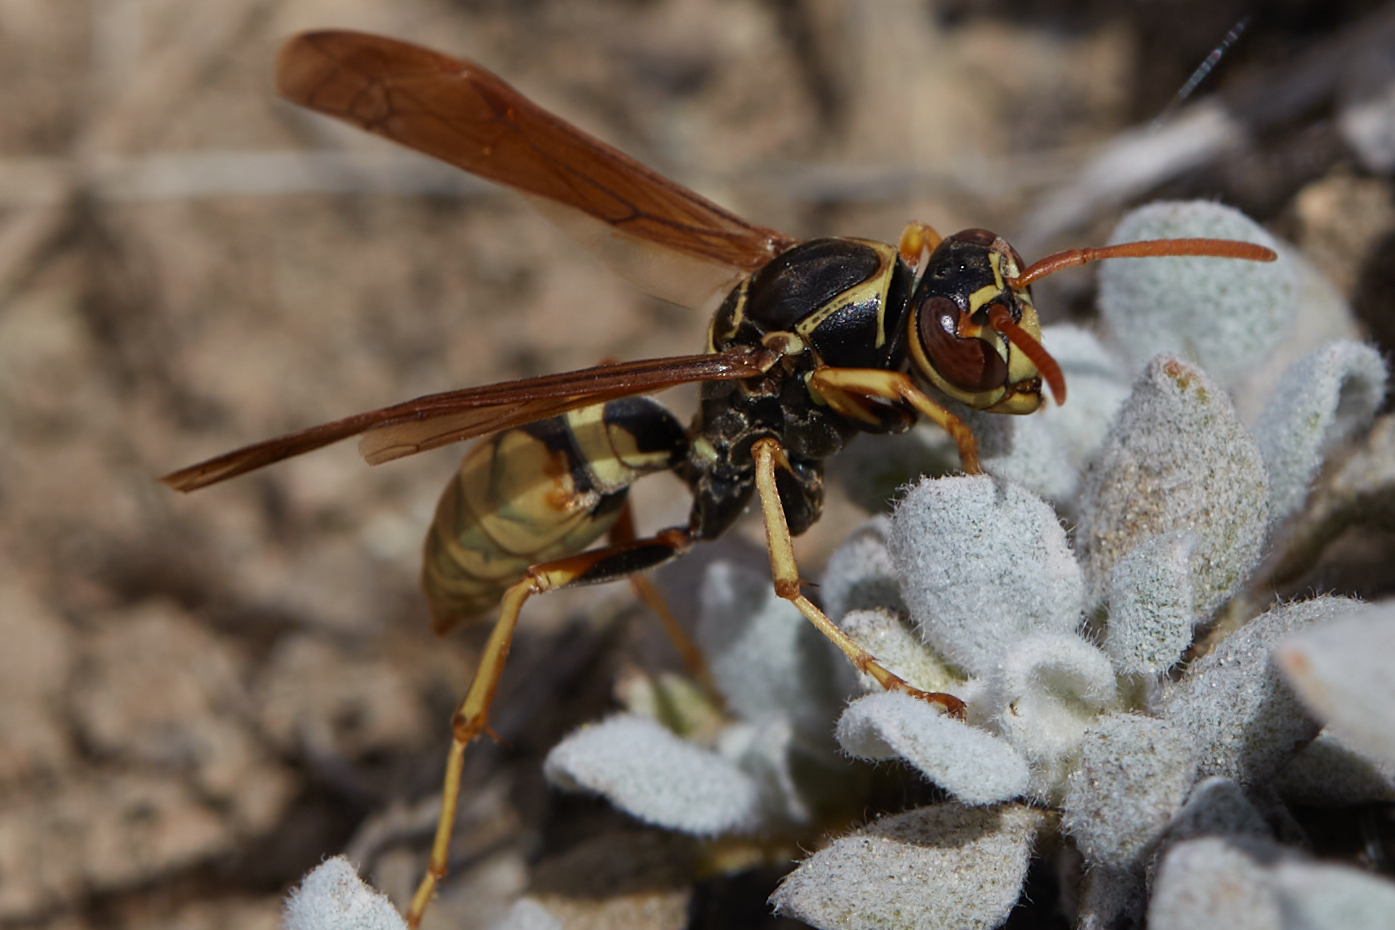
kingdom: Animalia
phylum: Arthropoda
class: Insecta
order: Hymenoptera
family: Eumenidae
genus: Polistes
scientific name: Polistes aurifer
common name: Paper wasp
